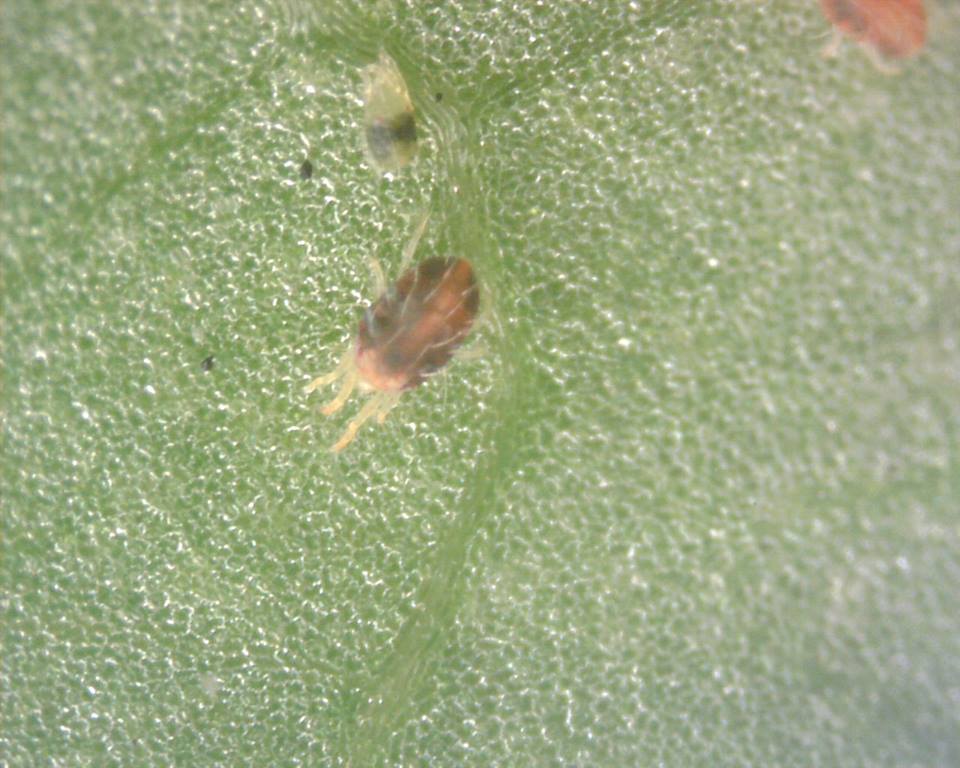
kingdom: Animalia
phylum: Arthropoda
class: Arachnida
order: Trombidiformes
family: Tetranychidae
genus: Tetranychus
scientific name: Tetranychus urticae
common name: Carmine spider mite
